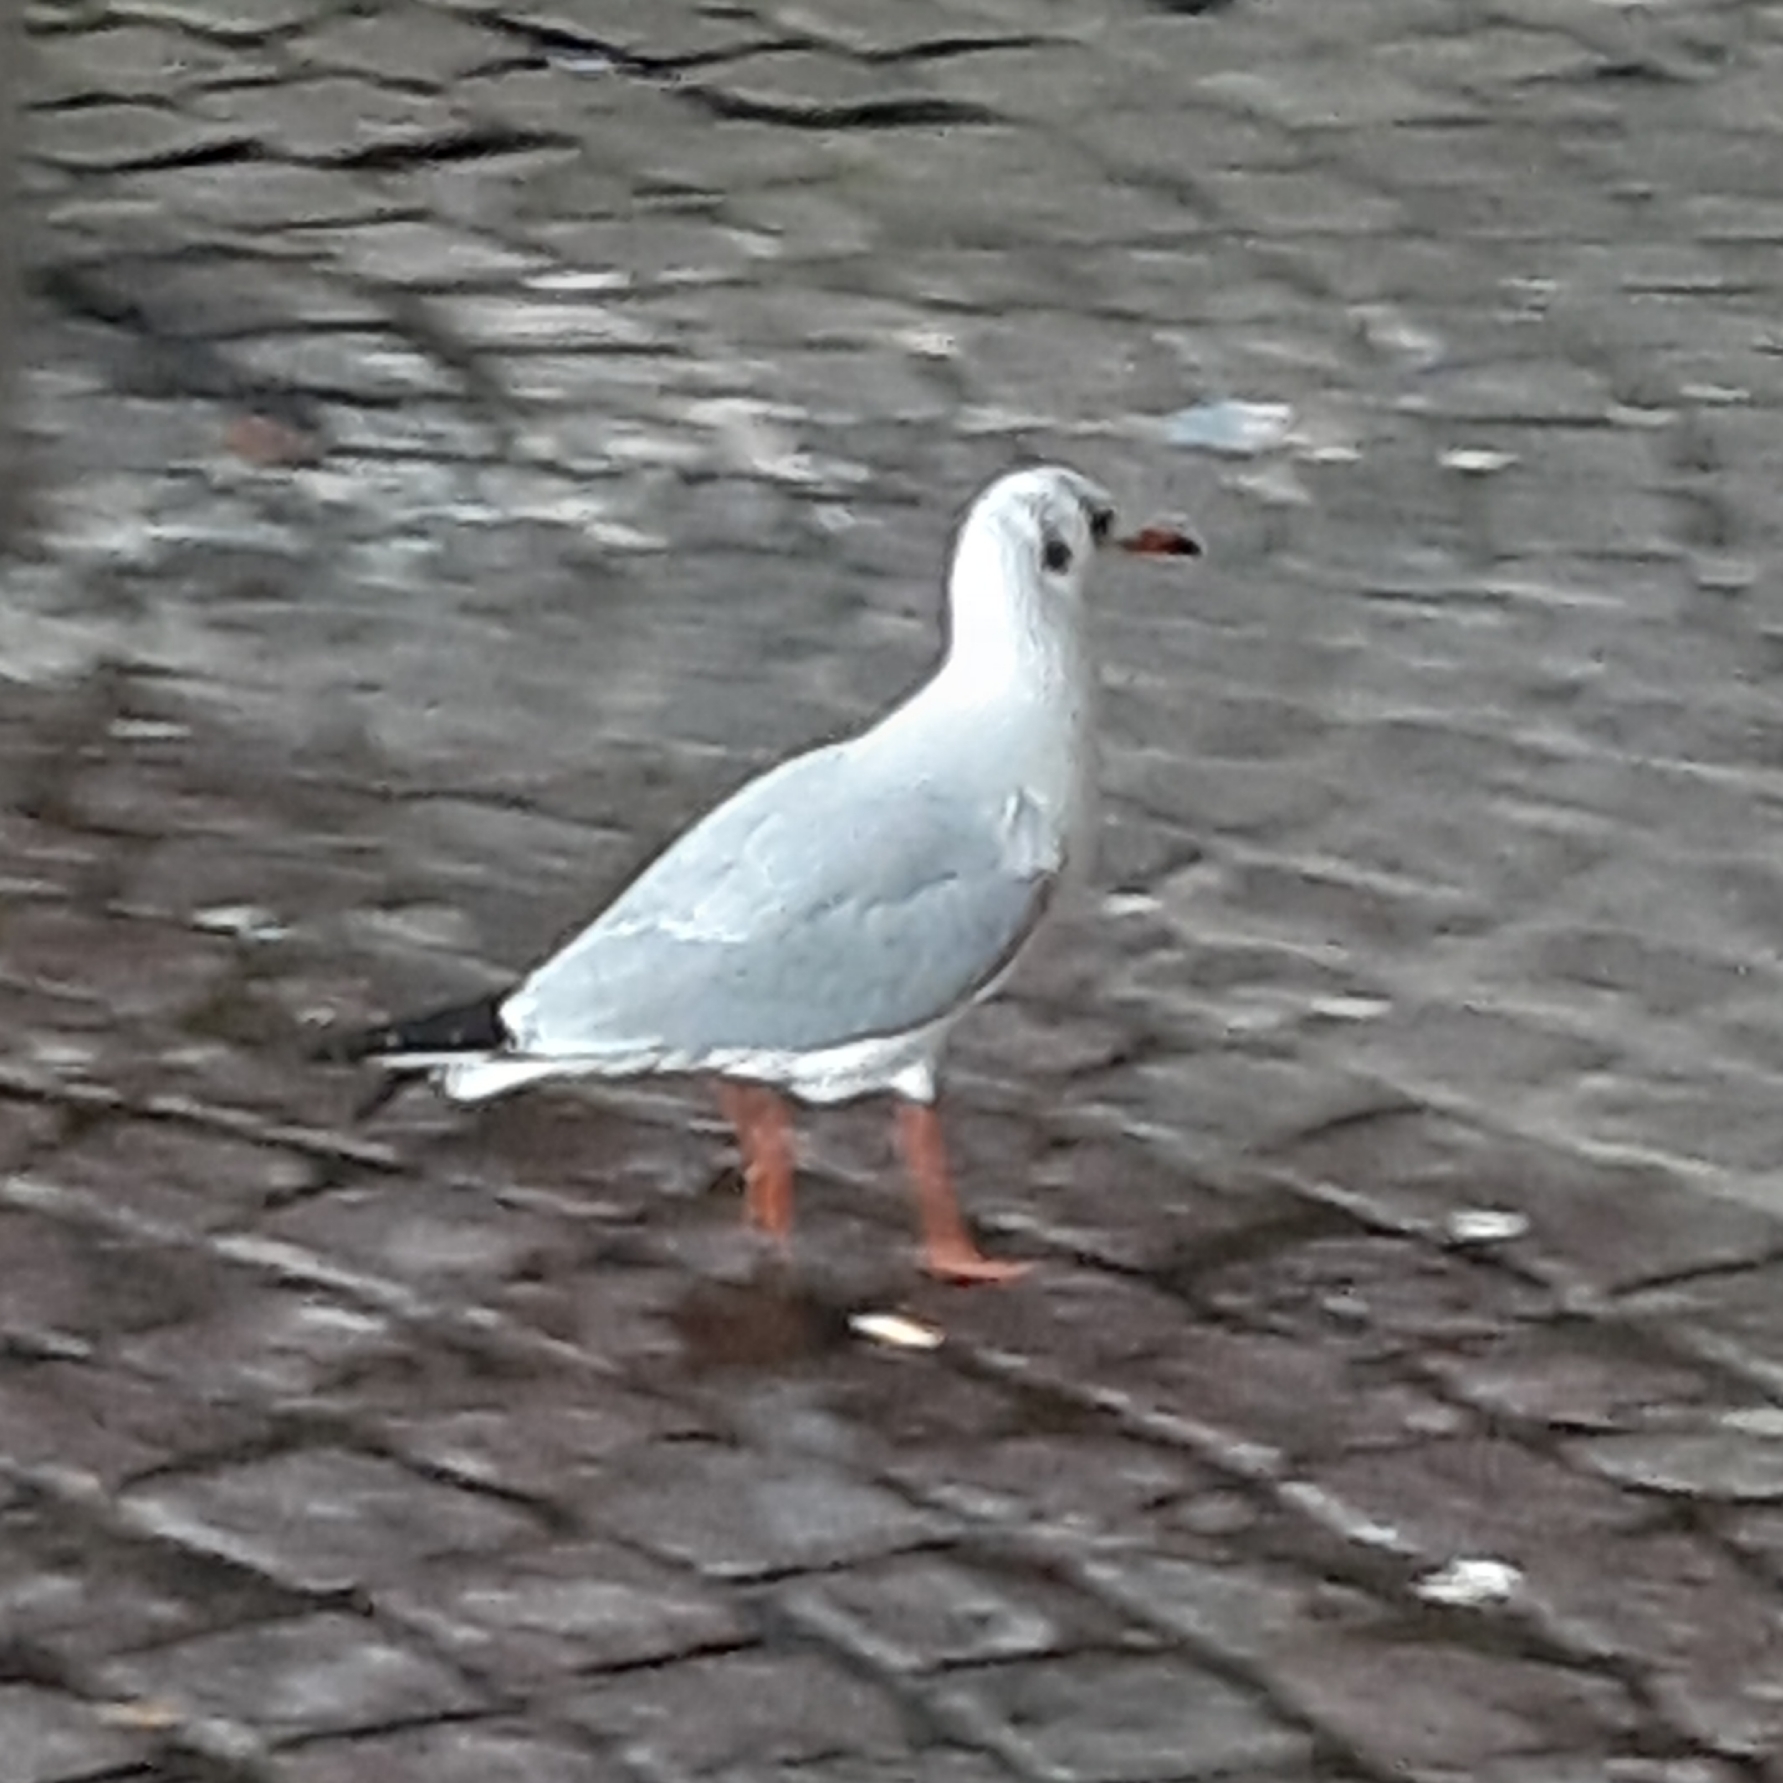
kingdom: Animalia
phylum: Chordata
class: Aves
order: Charadriiformes
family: Laridae
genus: Chroicocephalus
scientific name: Chroicocephalus ridibundus
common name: Black-headed gull
